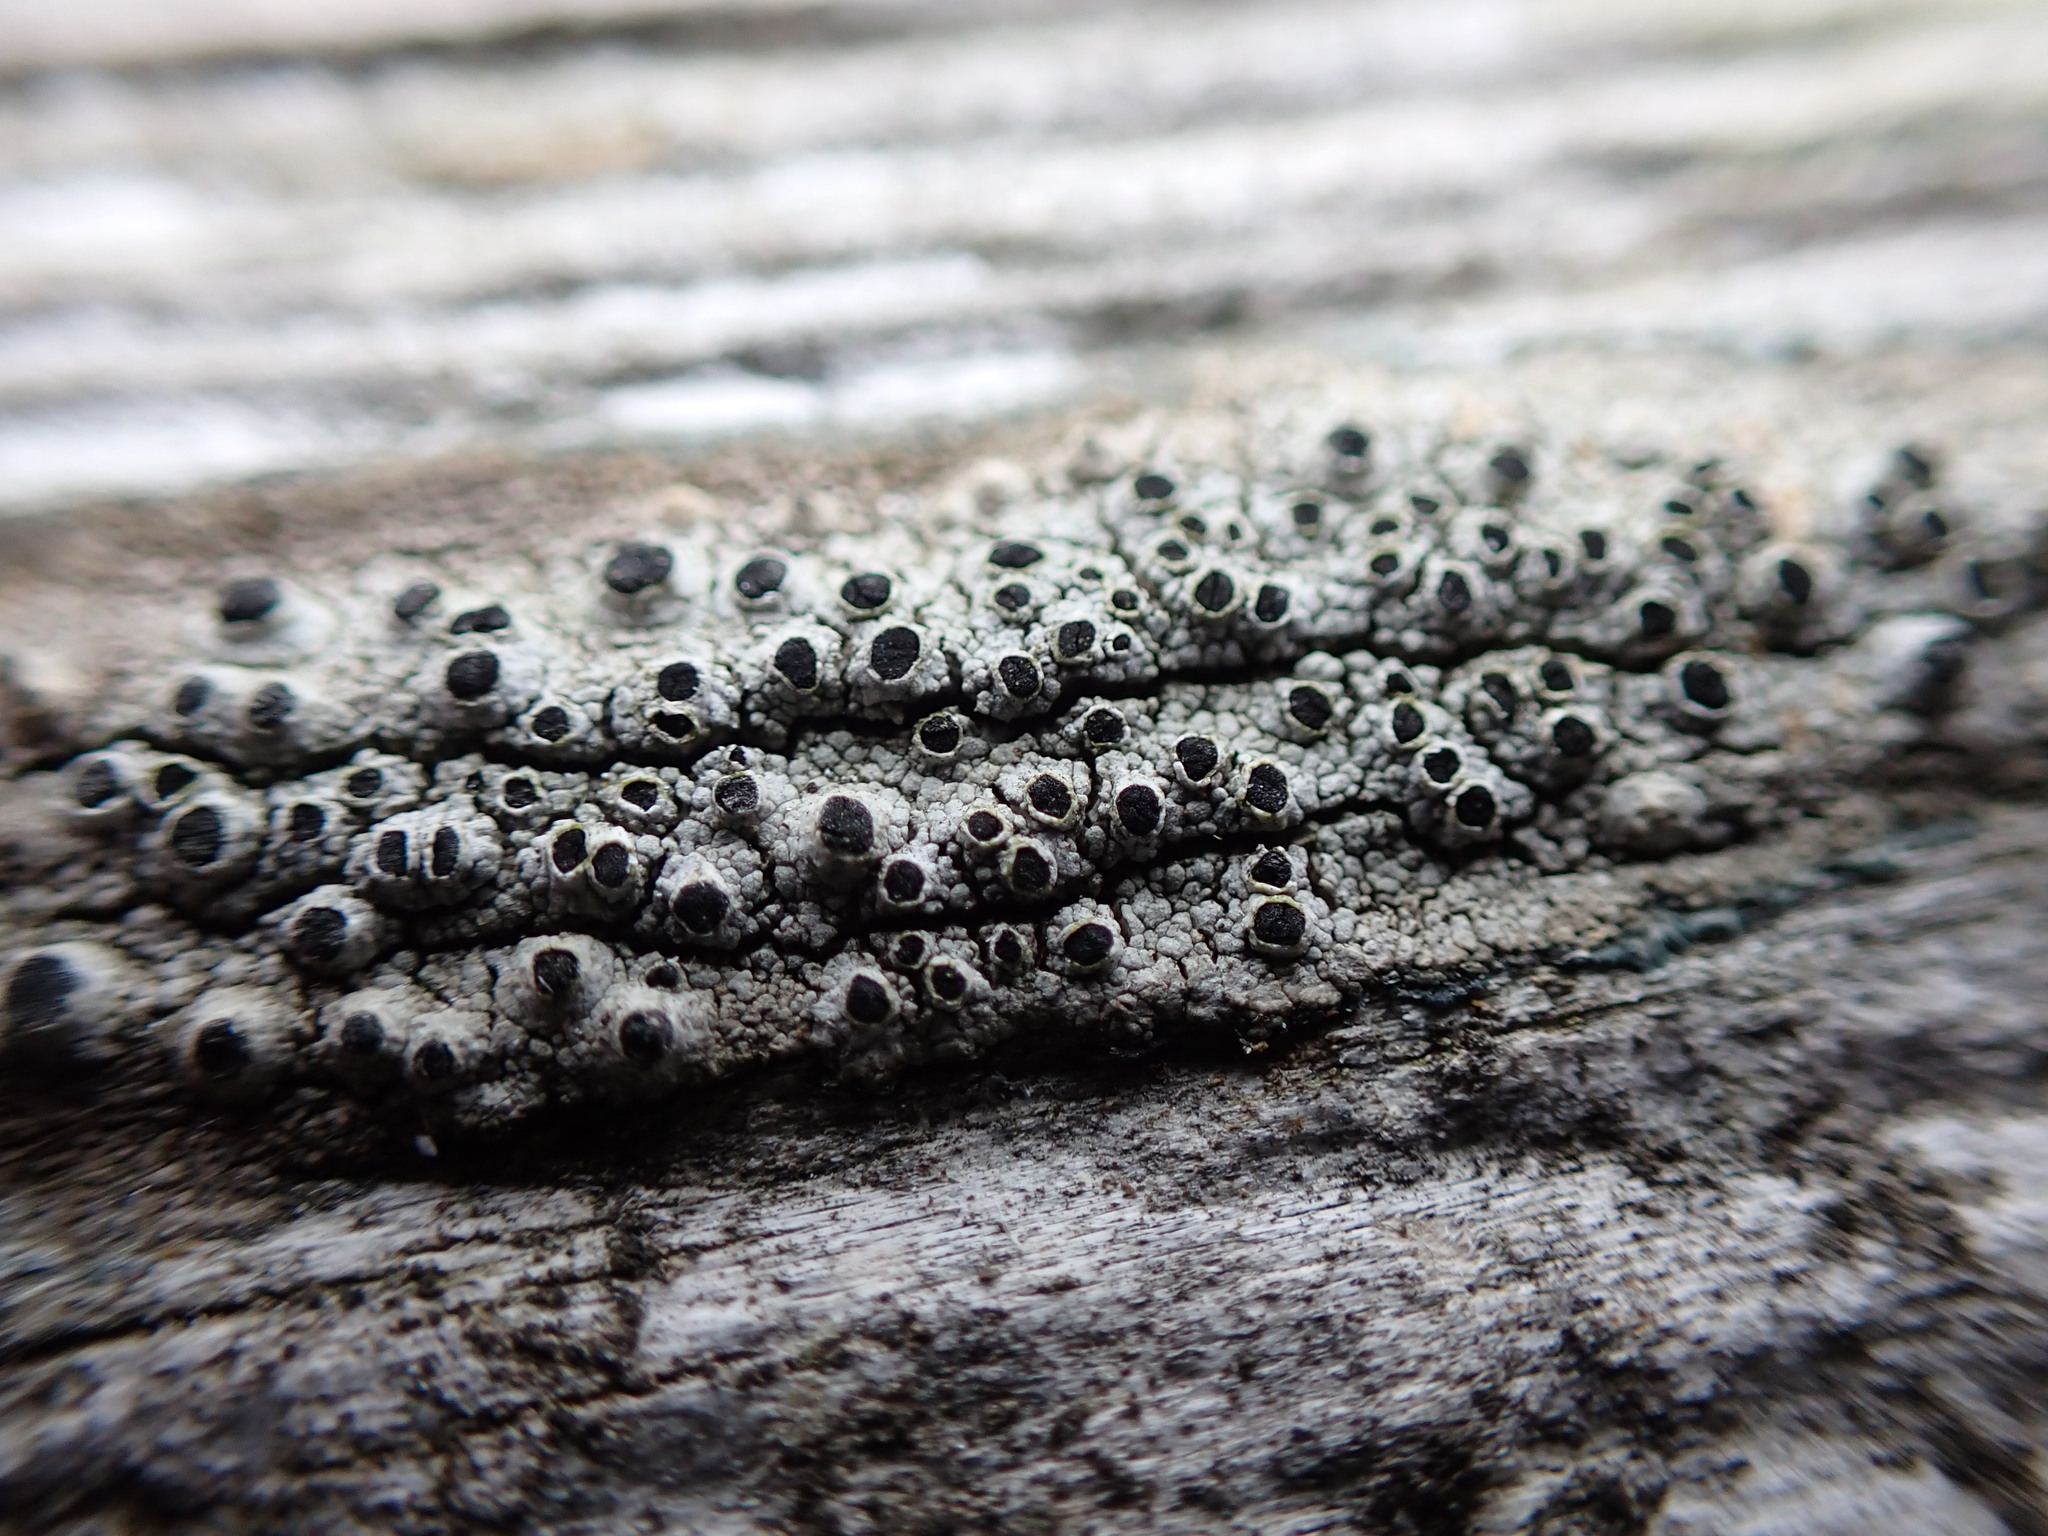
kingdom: Fungi
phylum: Ascomycota
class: Lecanoromycetes
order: Caliciales
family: Caliciaceae
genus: Pseudothelomma
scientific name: Pseudothelomma occidentale
